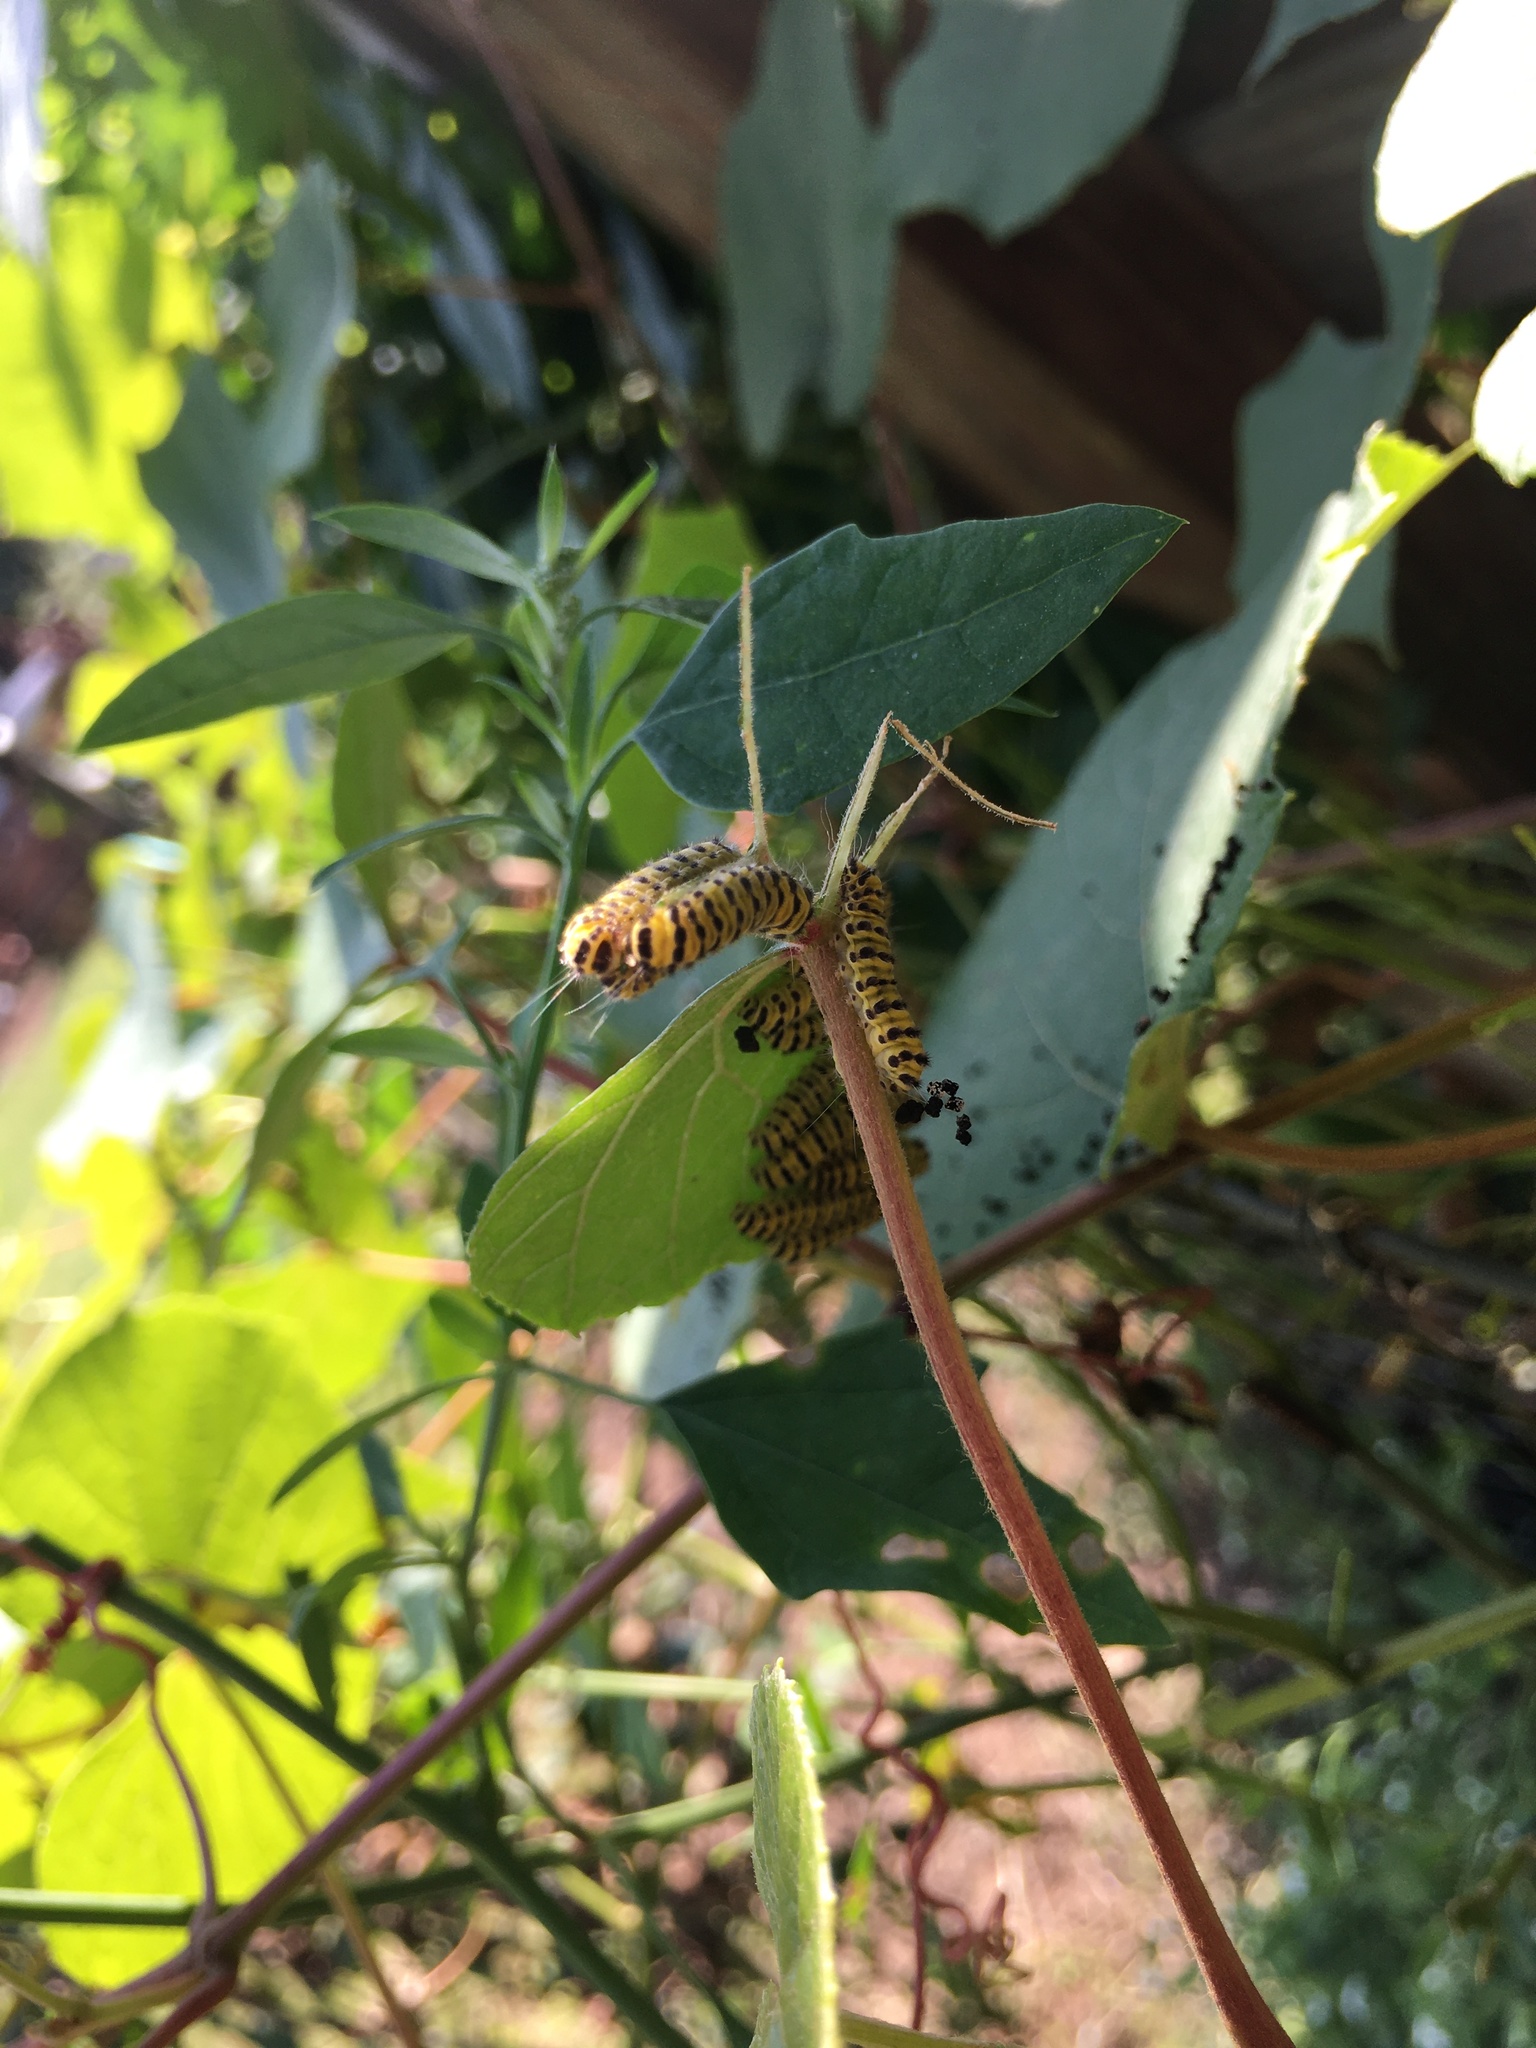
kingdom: Animalia
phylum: Arthropoda
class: Insecta
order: Lepidoptera
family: Zygaenidae
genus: Harrisina
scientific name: Harrisina americana
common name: Grapeleaf skeletonizer moth
